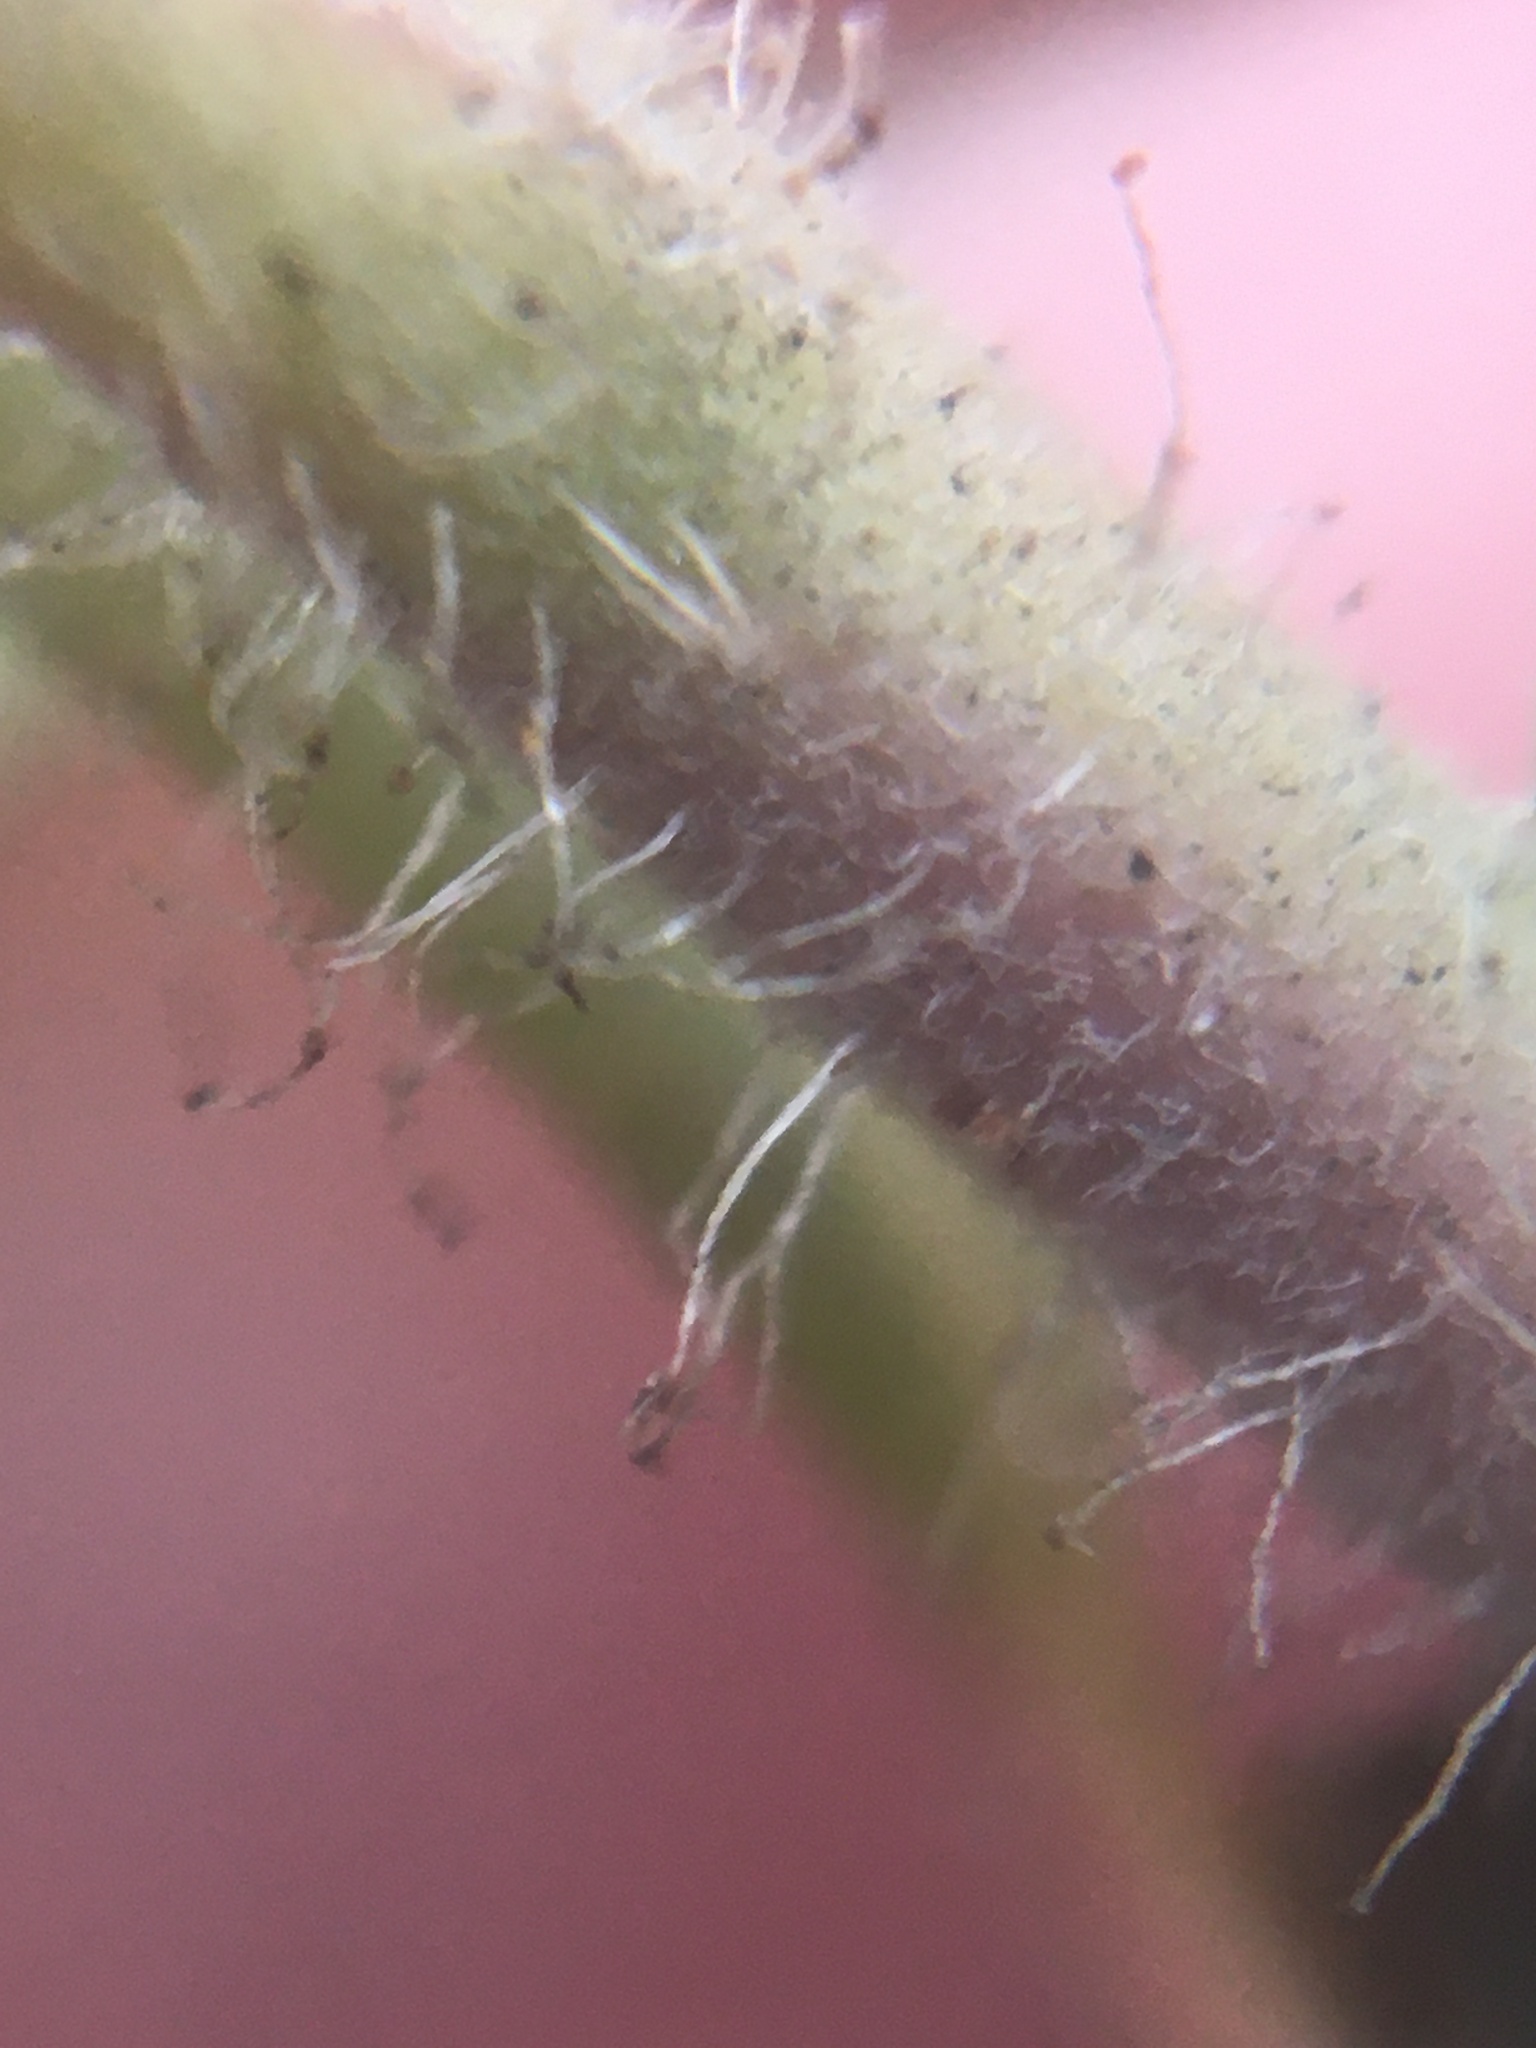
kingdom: Plantae
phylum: Tracheophyta
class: Magnoliopsida
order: Ericales
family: Ericaceae
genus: Arctostaphylos
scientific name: Arctostaphylos glandulosa
